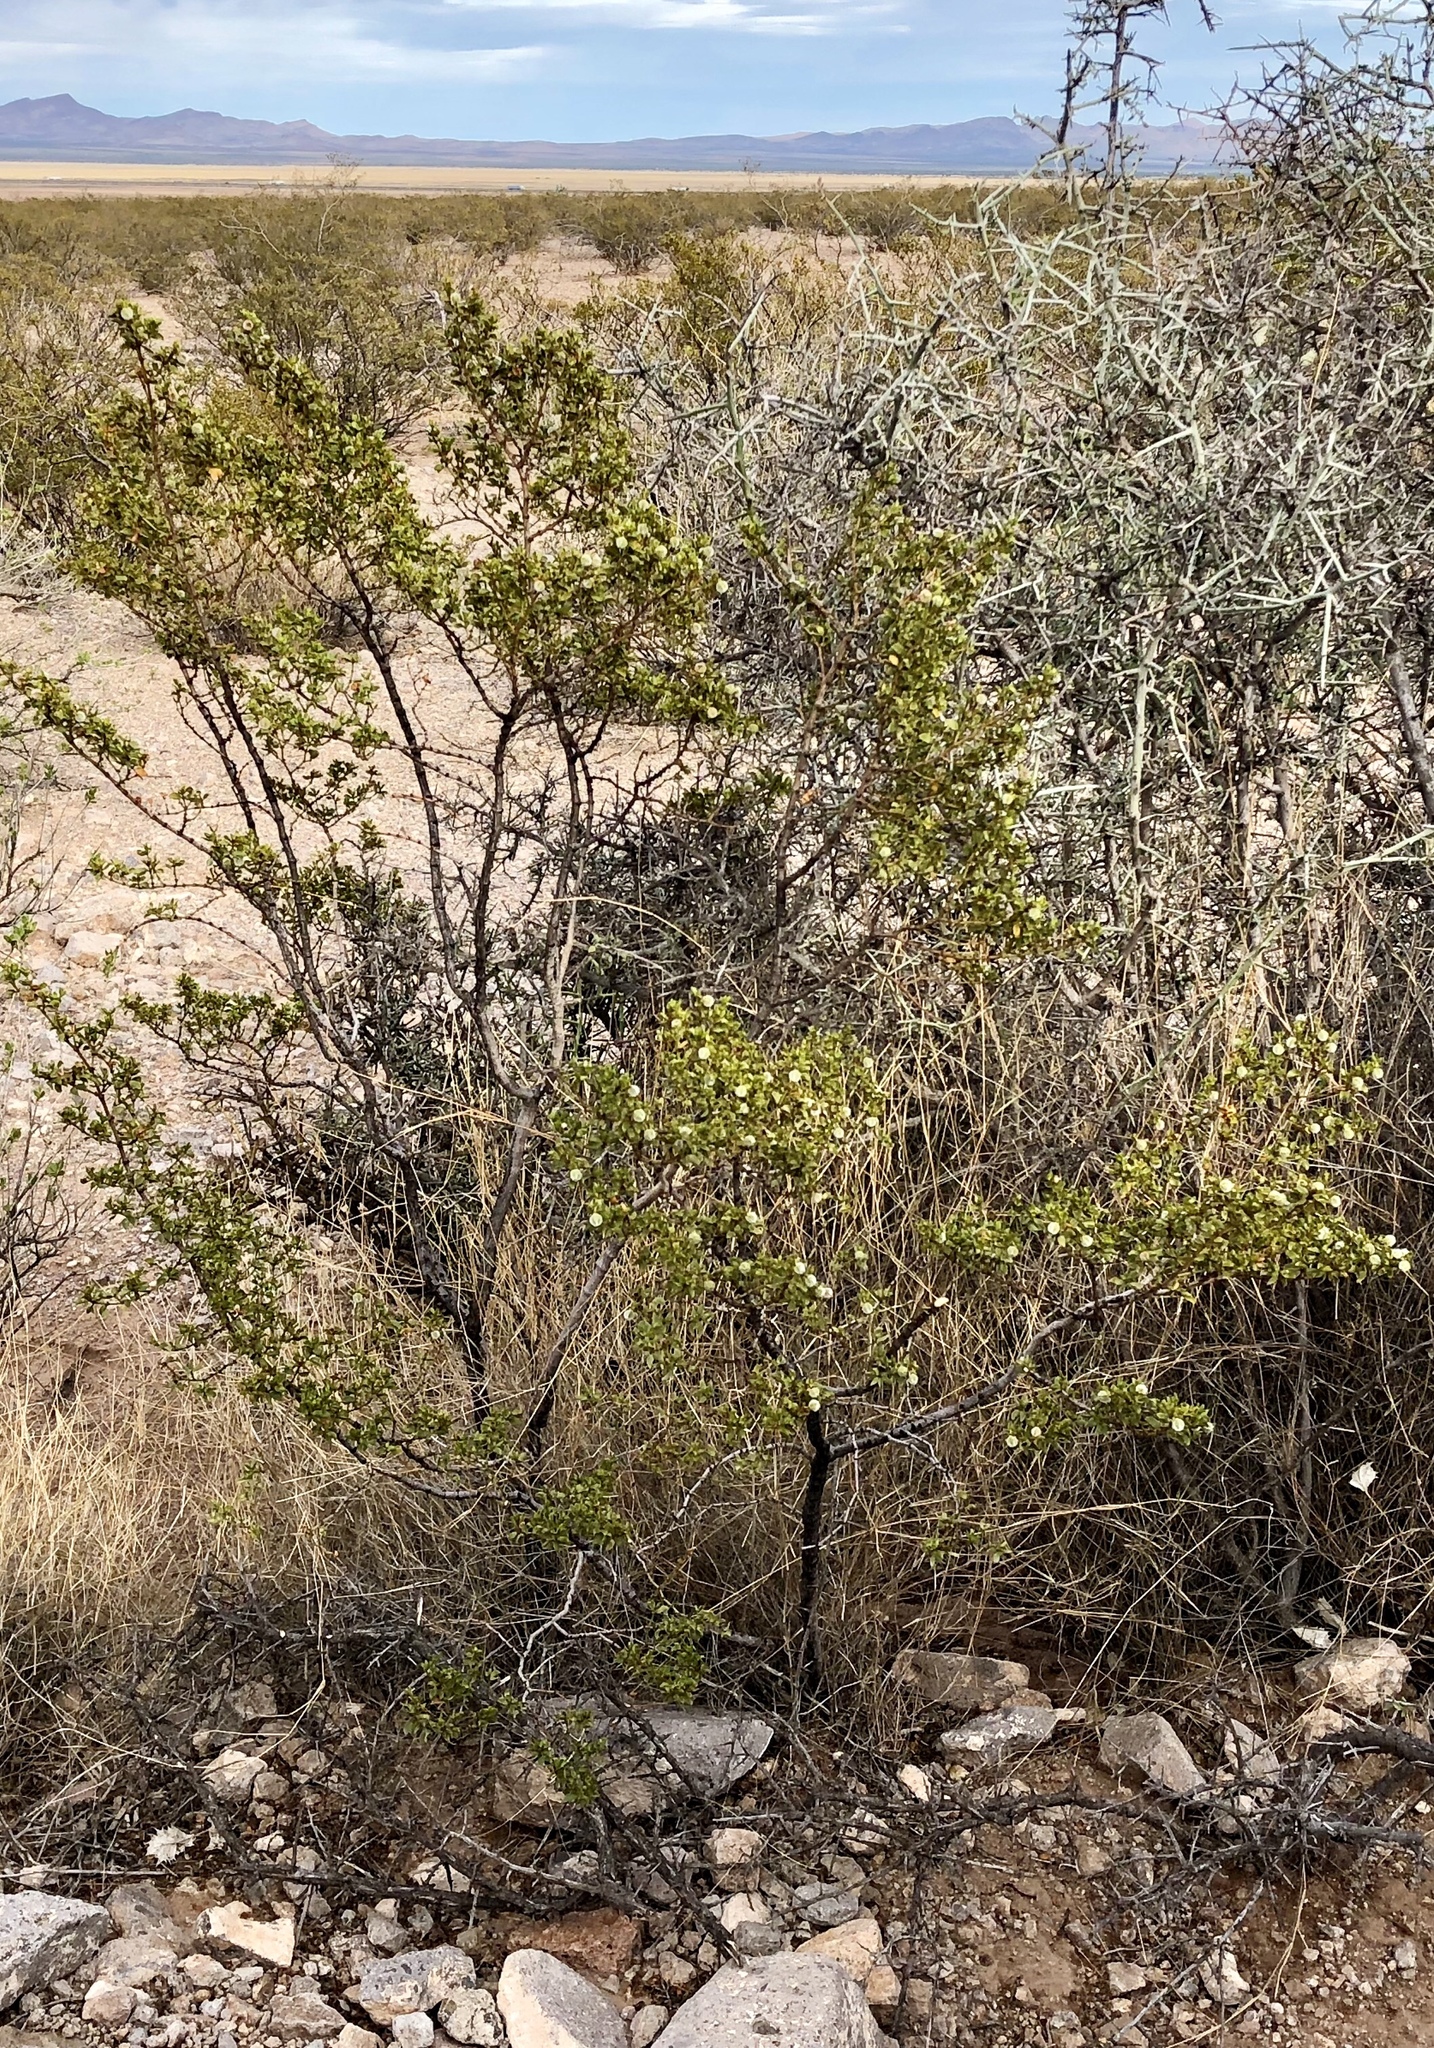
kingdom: Plantae
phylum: Tracheophyta
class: Magnoliopsida
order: Zygophyllales
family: Zygophyllaceae
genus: Larrea
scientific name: Larrea tridentata
